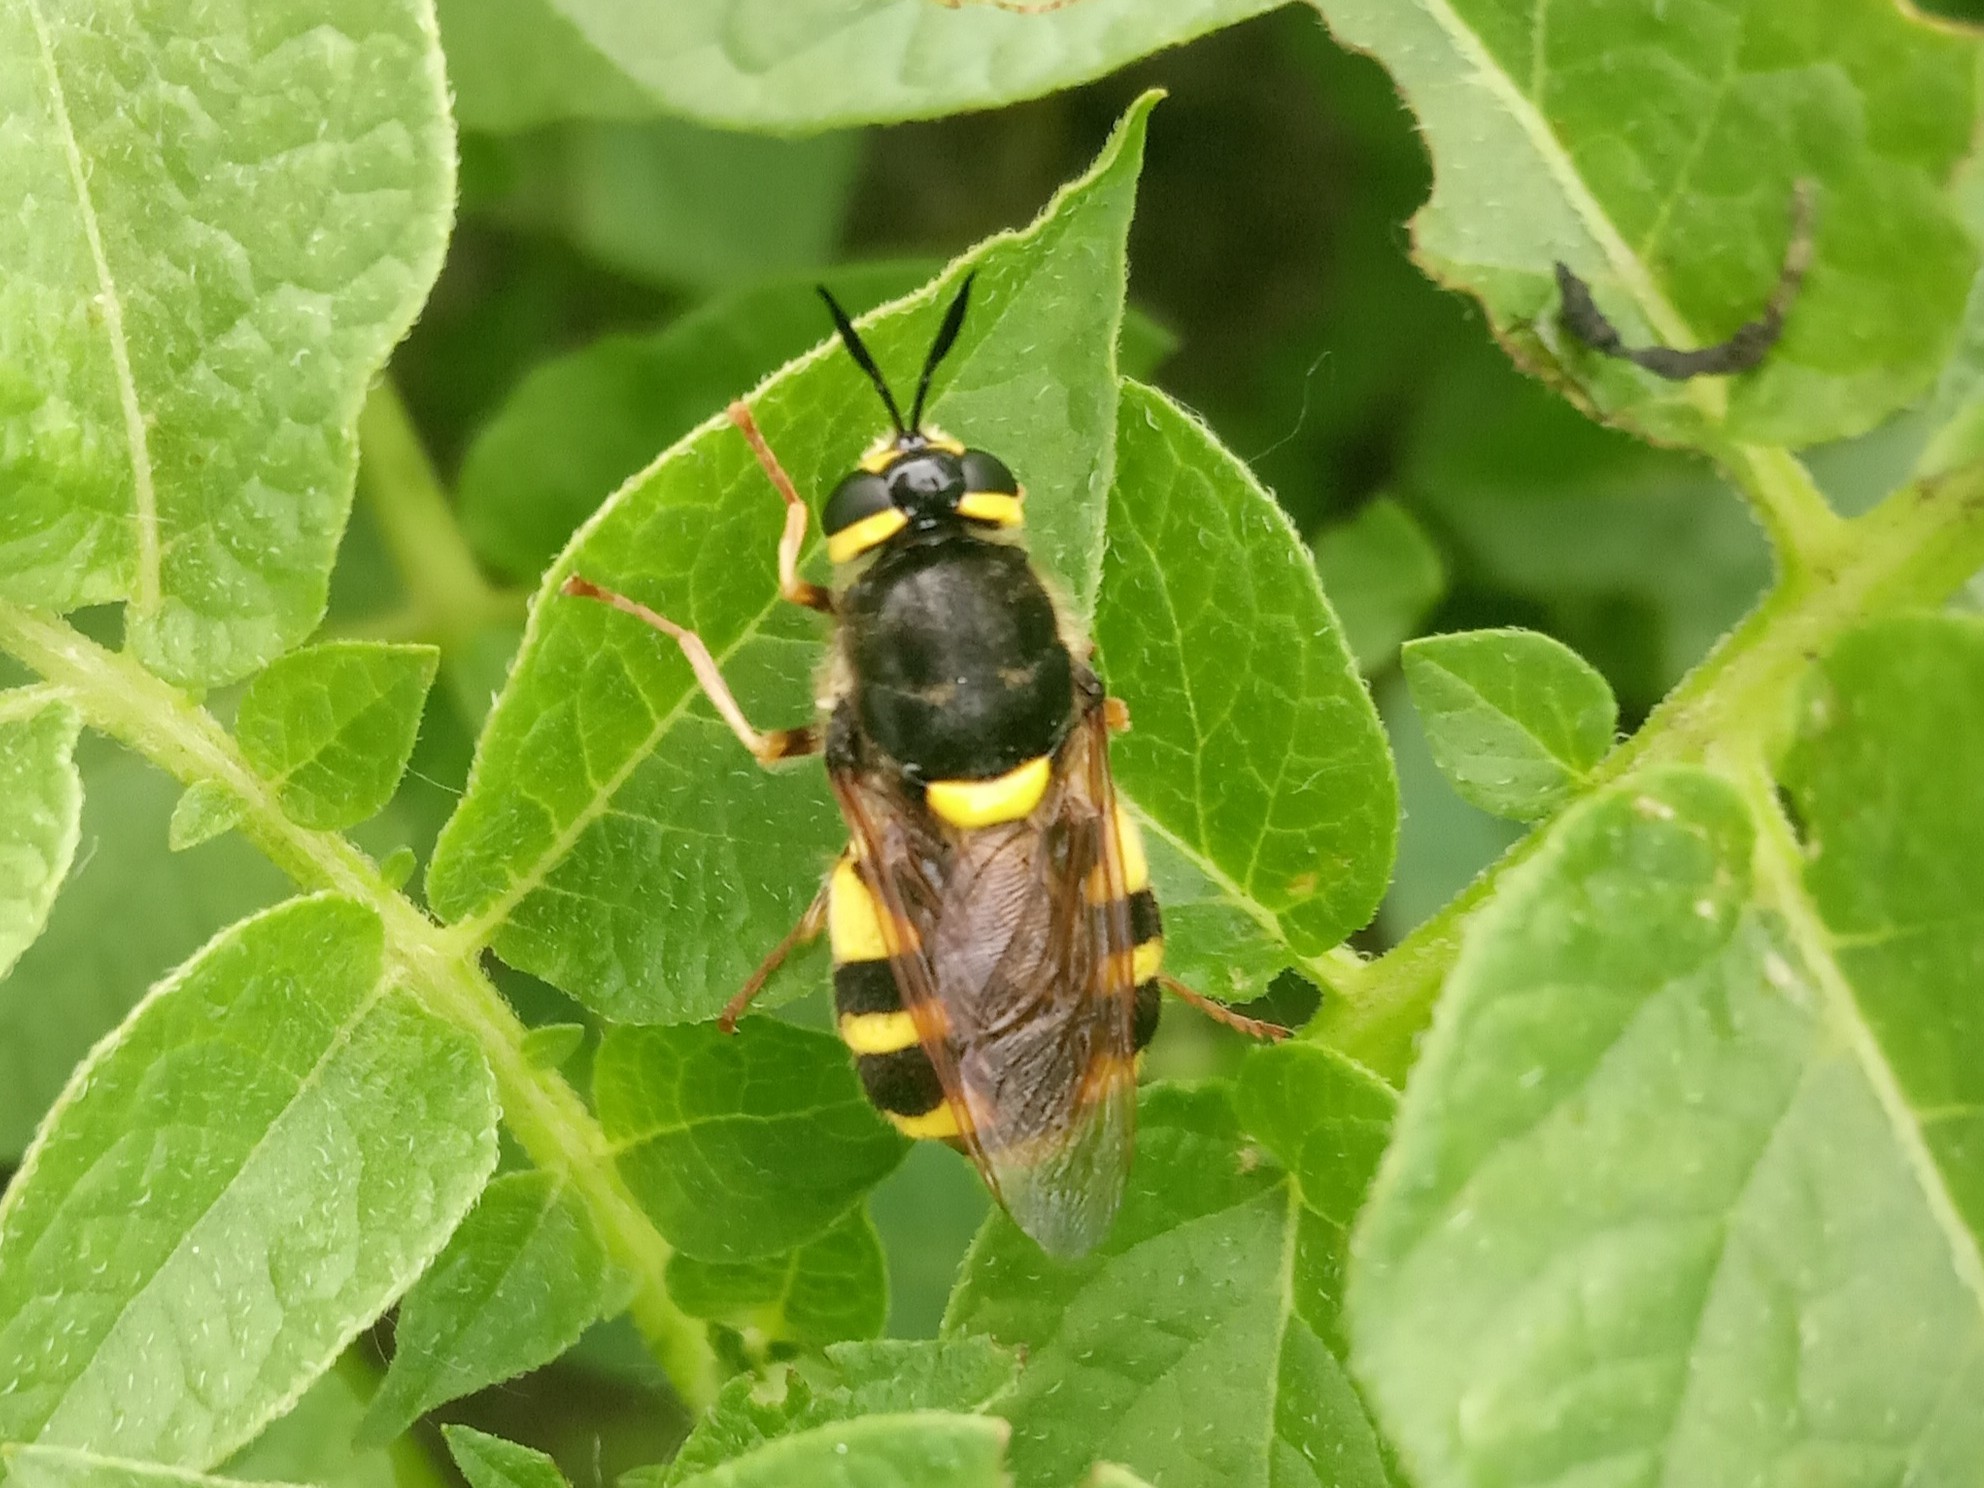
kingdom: Animalia
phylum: Arthropoda
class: Insecta
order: Diptera
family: Stratiomyidae
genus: Stratiomys
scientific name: Stratiomys
